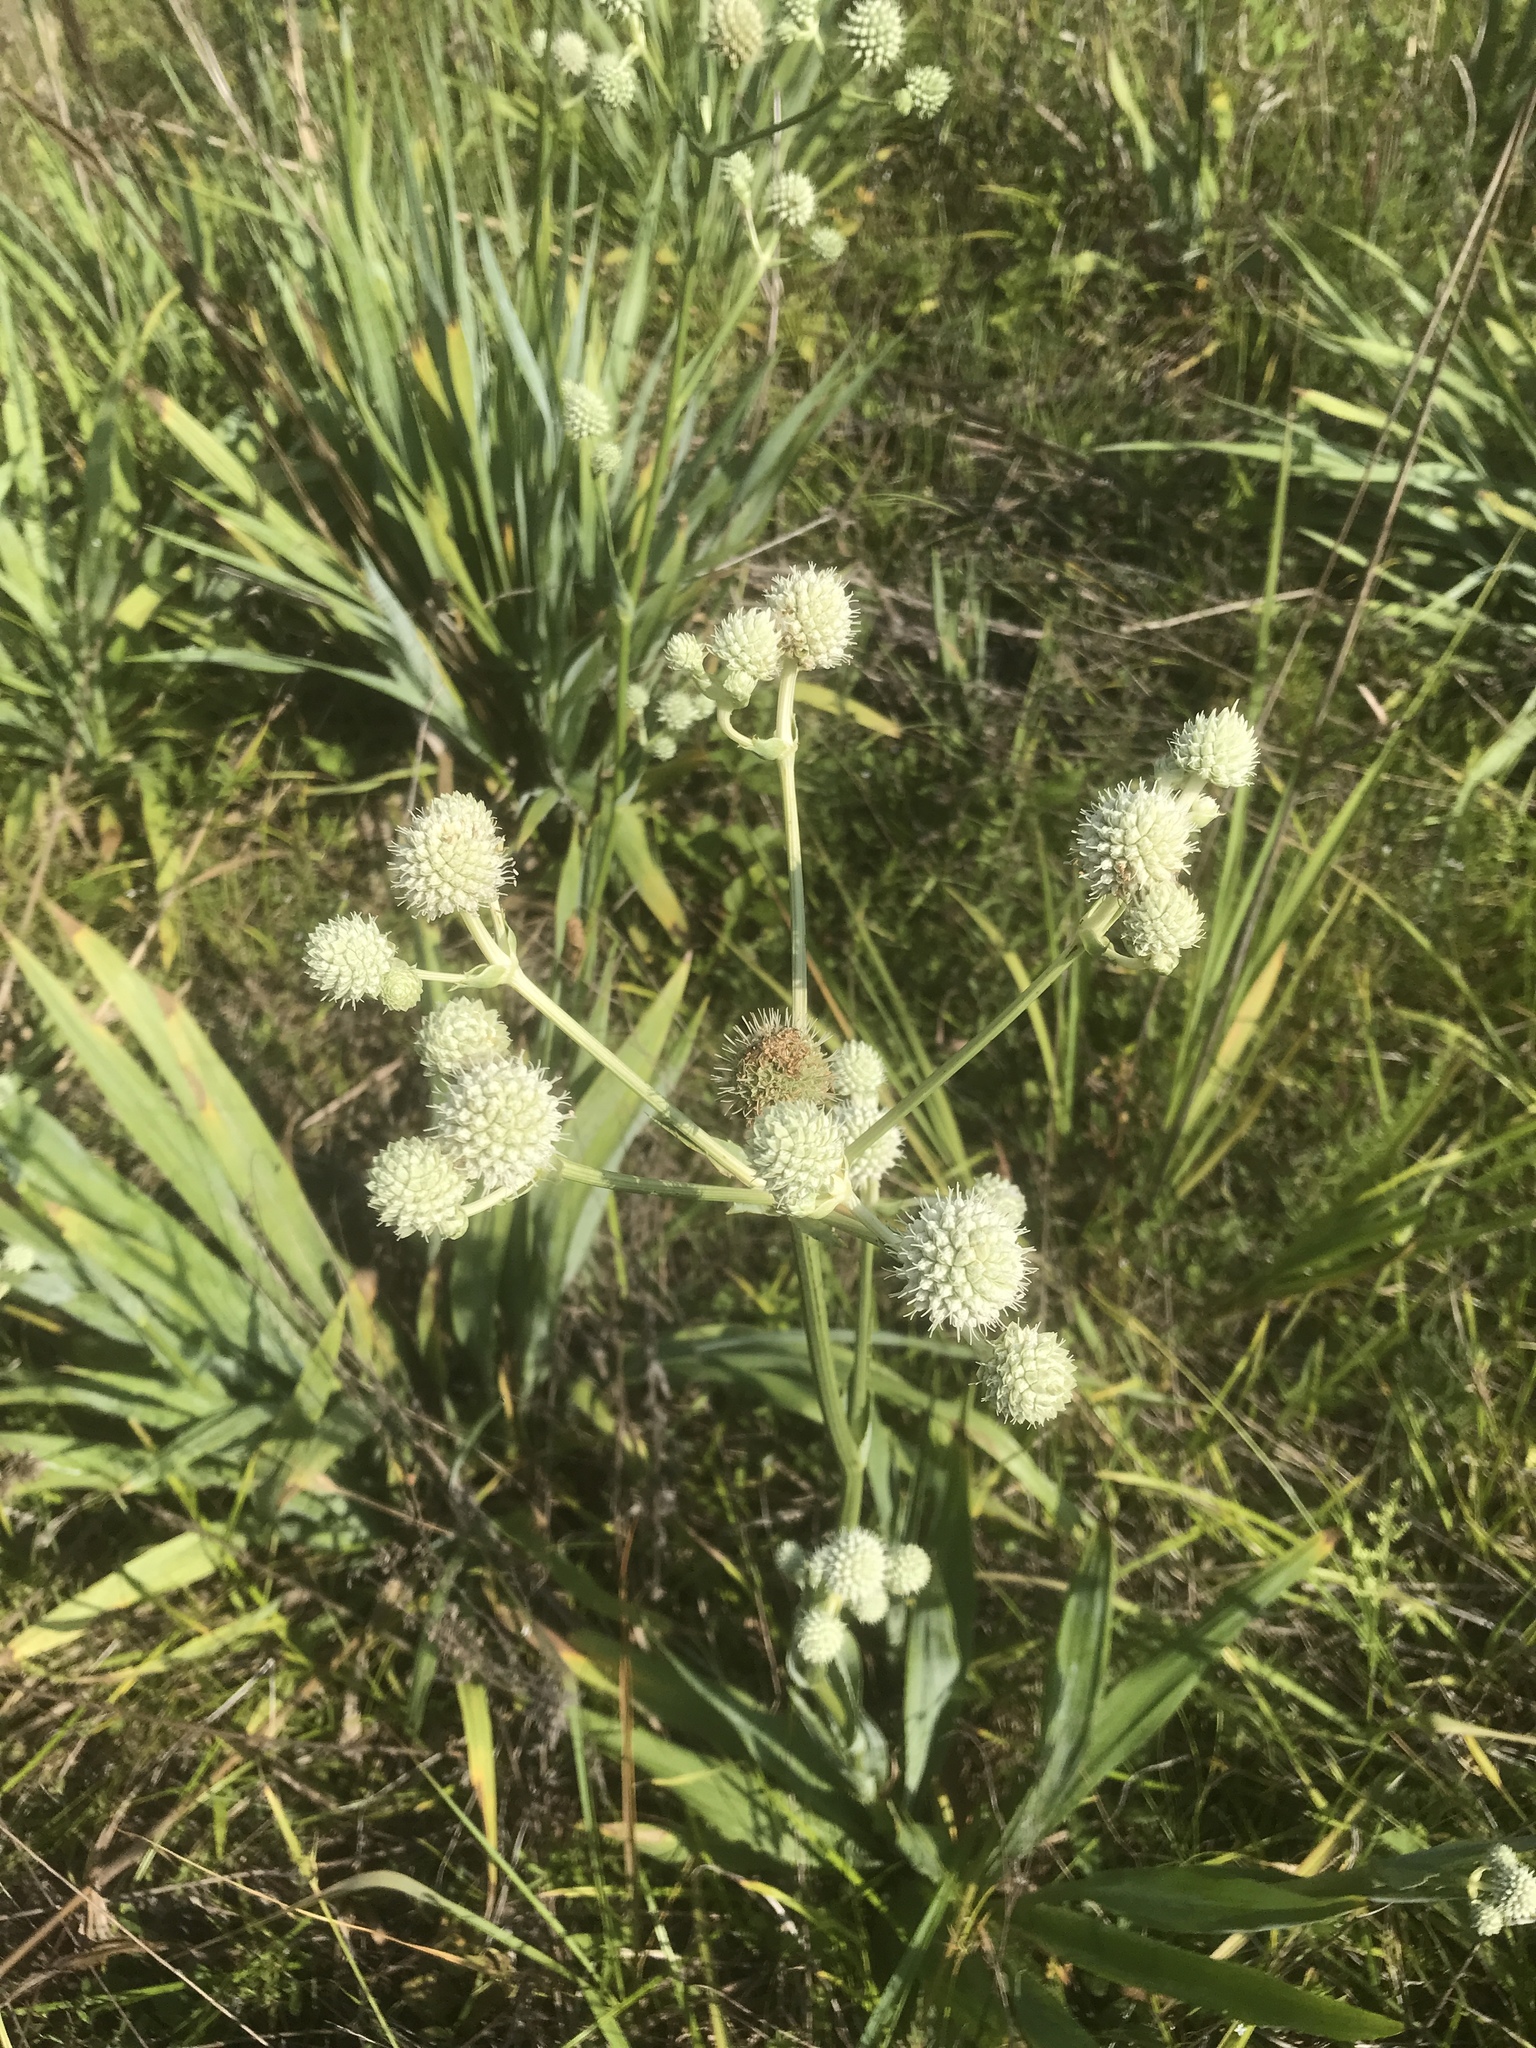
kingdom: Plantae
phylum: Tracheophyta
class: Magnoliopsida
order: Apiales
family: Apiaceae
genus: Eryngium
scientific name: Eryngium yuccifolium
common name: Button eryngo
